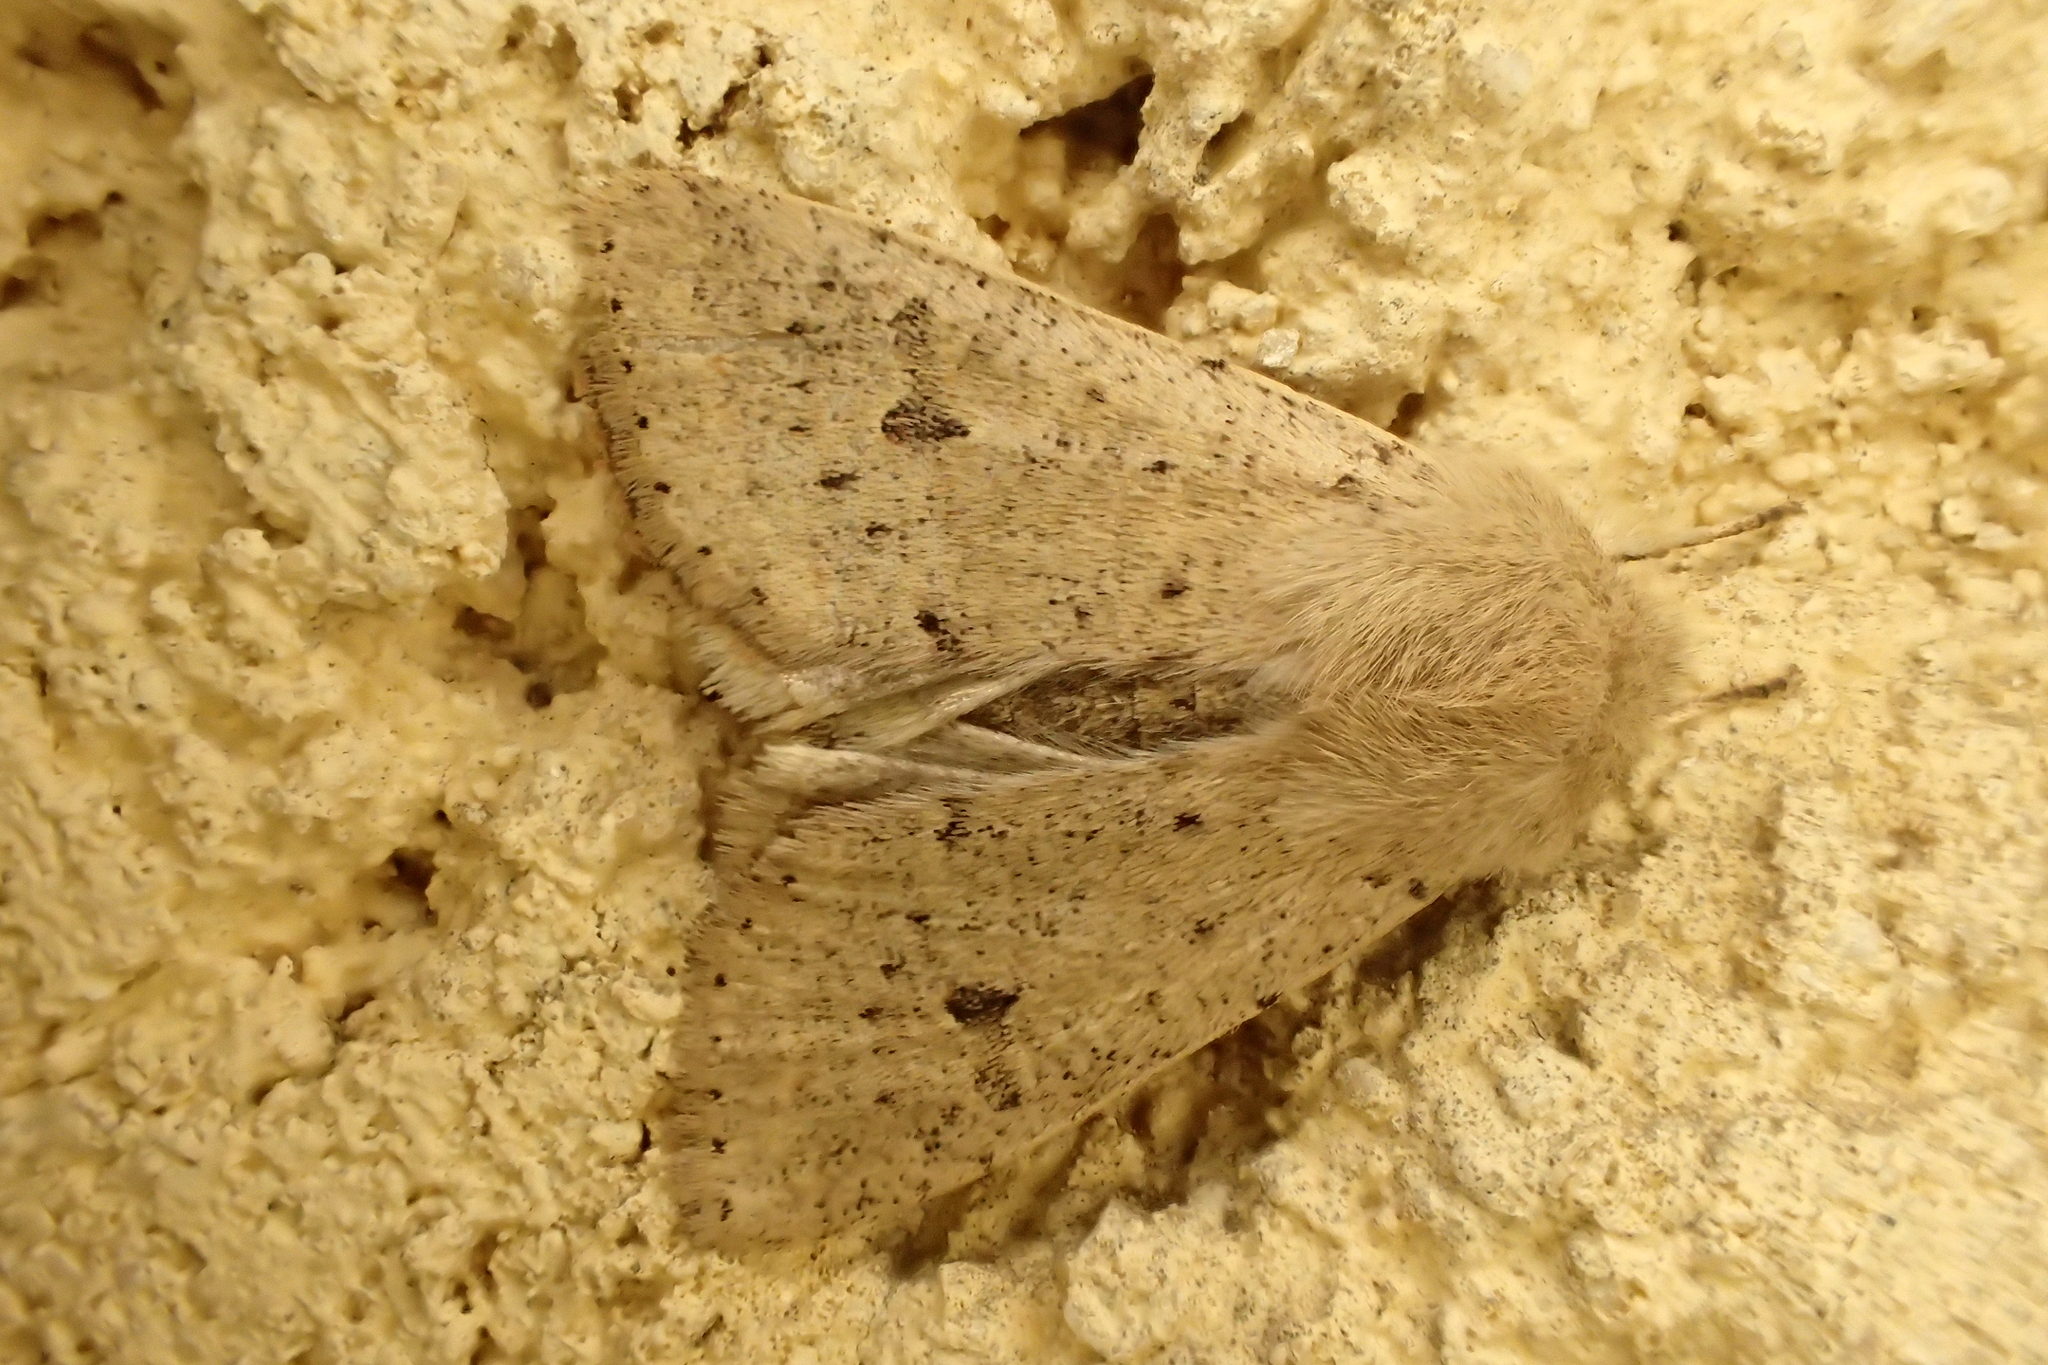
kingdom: Animalia
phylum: Arthropoda
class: Insecta
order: Lepidoptera
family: Noctuidae
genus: Orthosia
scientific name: Orthosia cruda
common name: Small quaker
